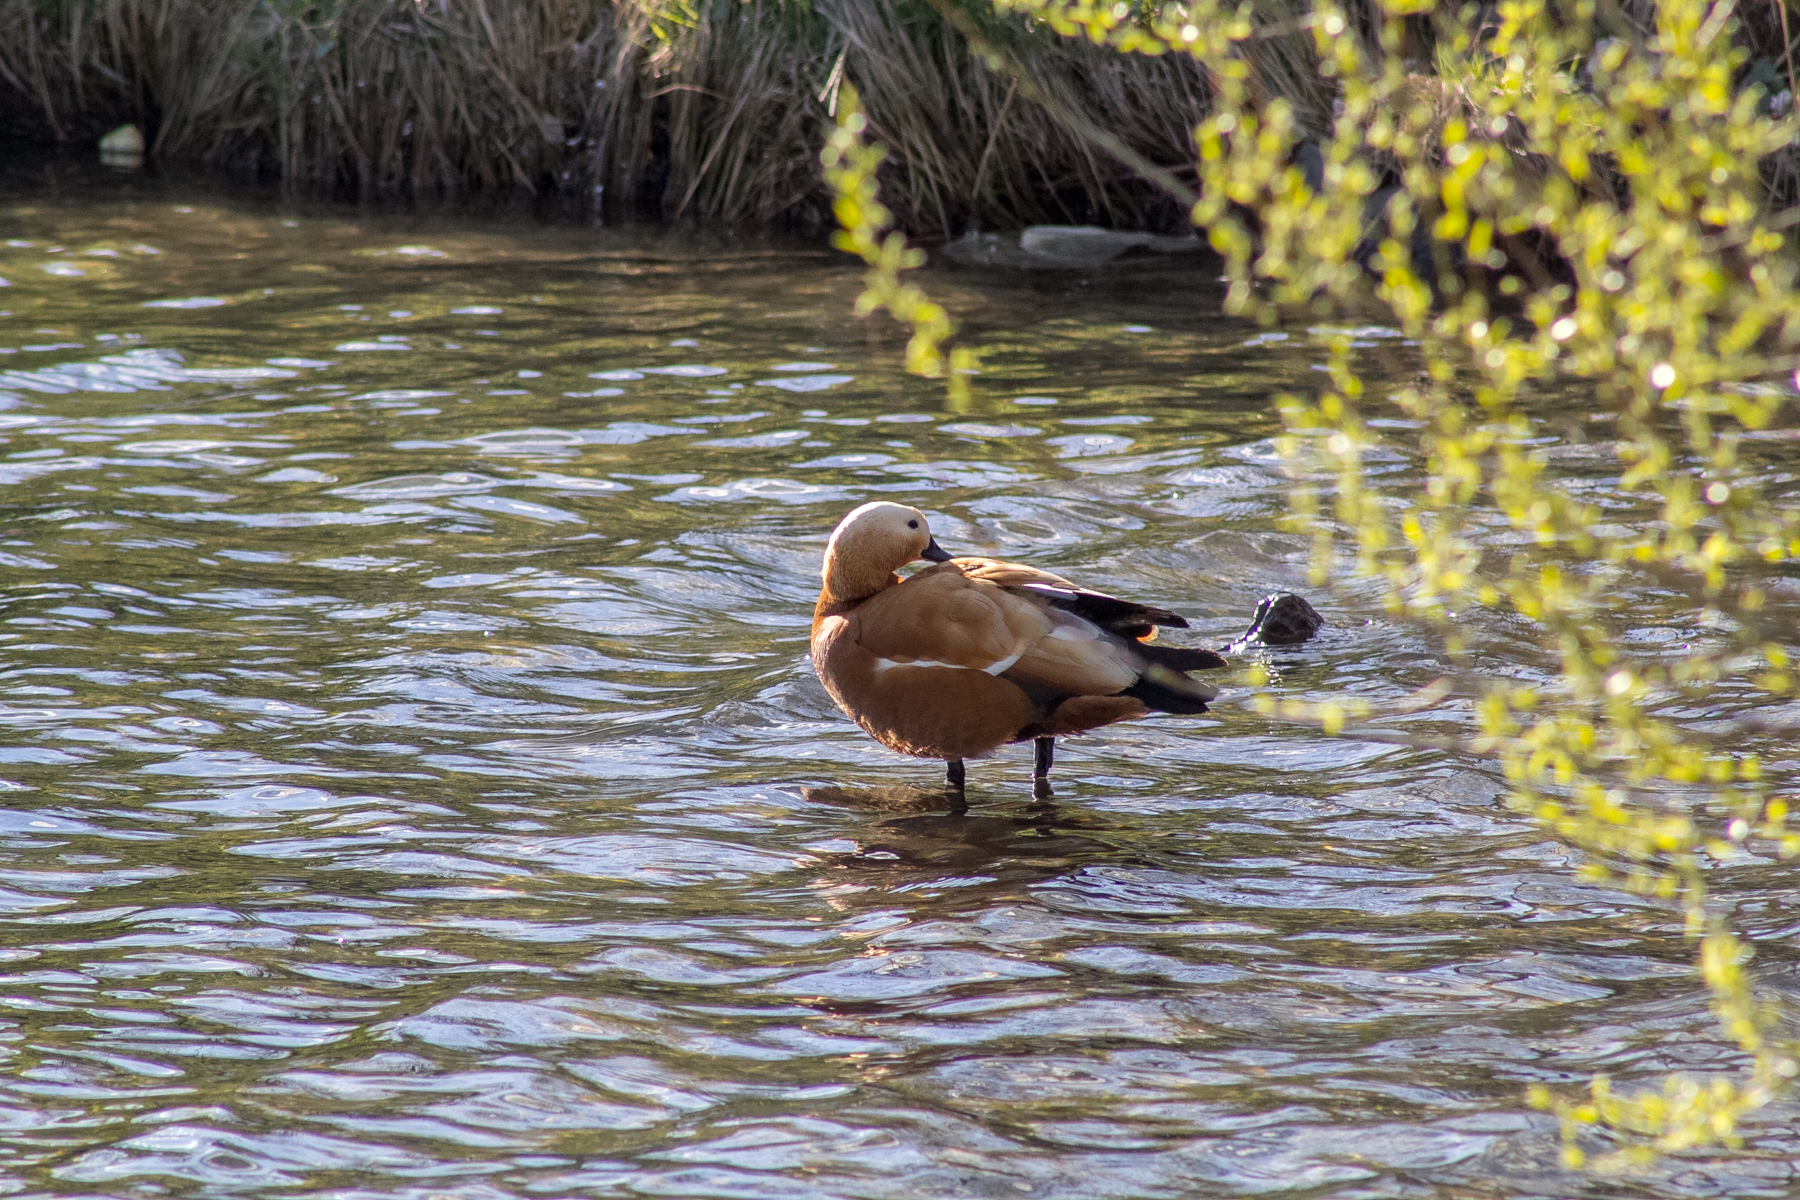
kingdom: Animalia
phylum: Chordata
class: Aves
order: Anseriformes
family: Anatidae
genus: Tadorna
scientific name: Tadorna ferruginea
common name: Ruddy shelduck
